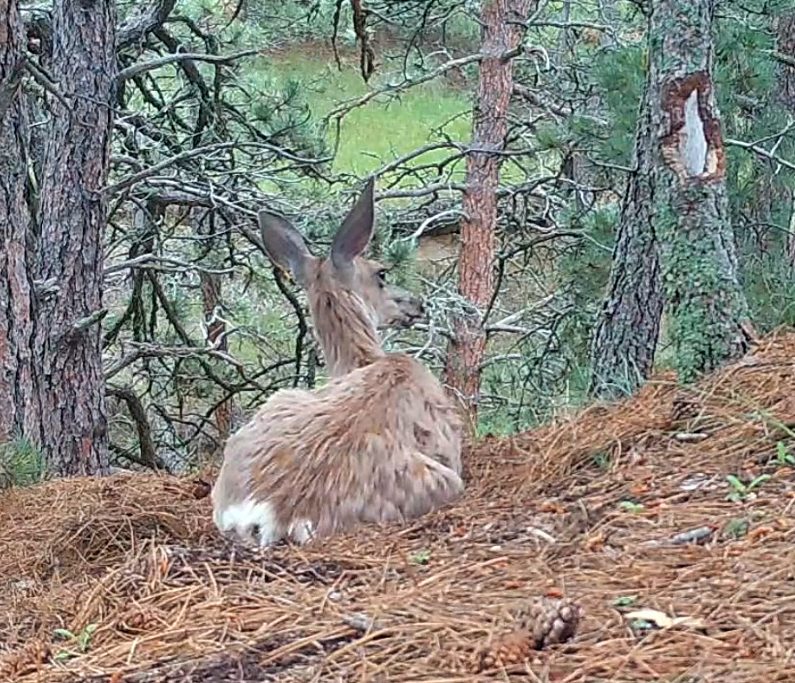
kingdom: Animalia
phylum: Chordata
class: Mammalia
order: Artiodactyla
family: Cervidae
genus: Odocoileus
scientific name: Odocoileus hemionus
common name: Mule deer
